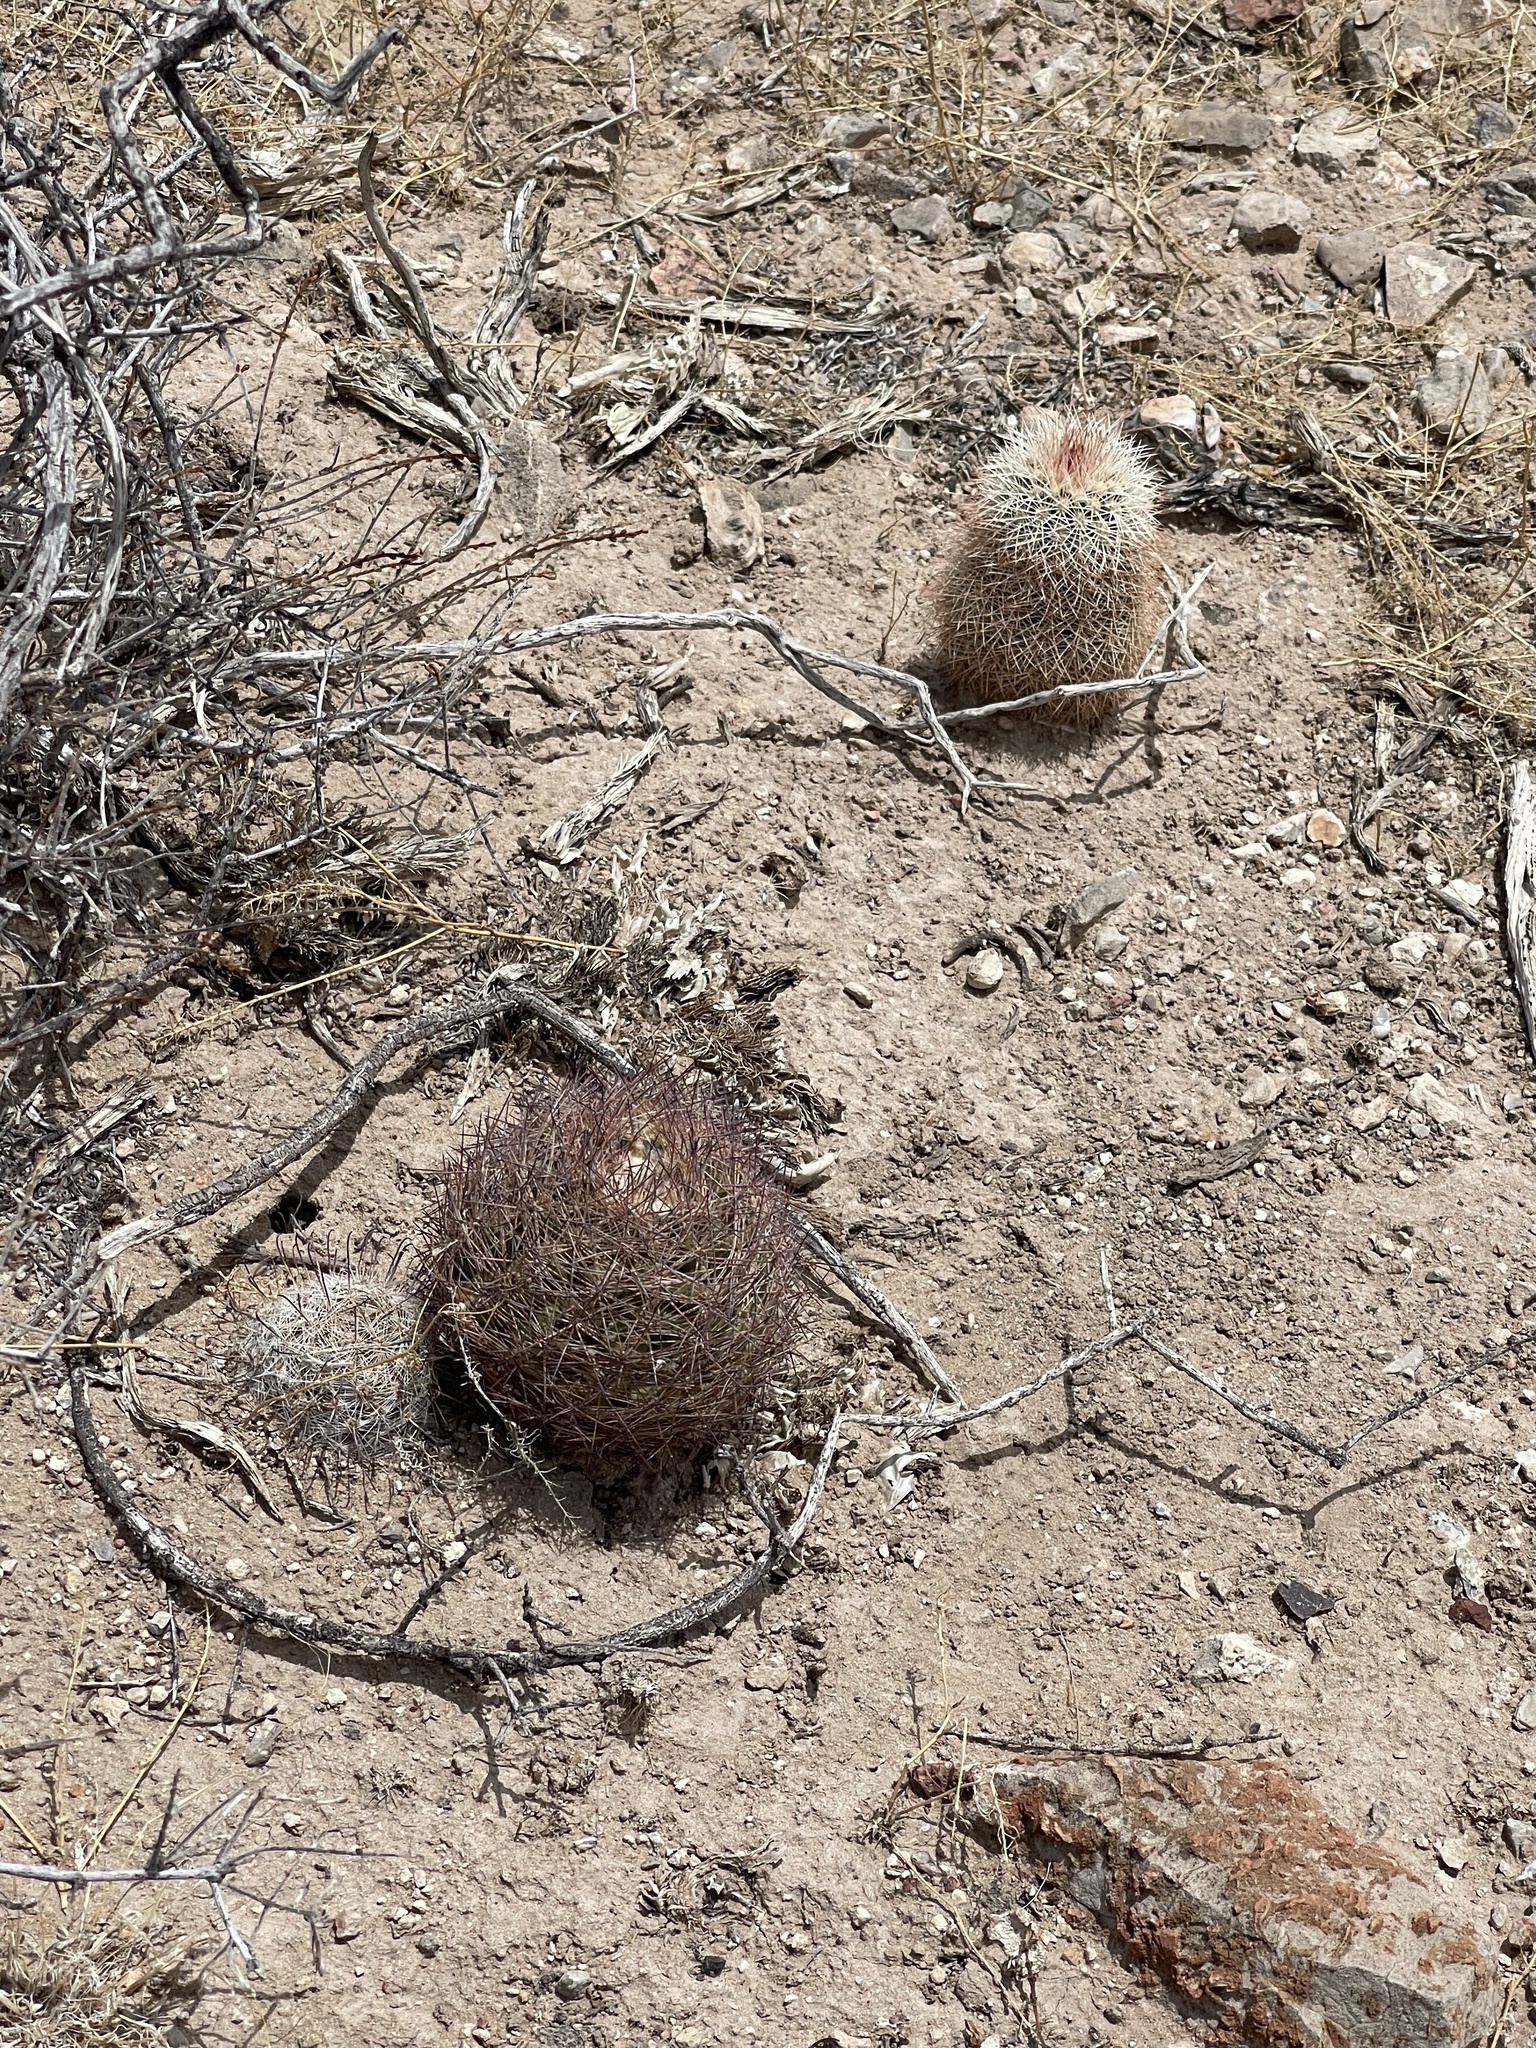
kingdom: Plantae
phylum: Tracheophyta
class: Magnoliopsida
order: Caryophyllales
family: Cactaceae
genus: Sclerocactus
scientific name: Sclerocactus intertextus
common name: White fish-hook cactus
